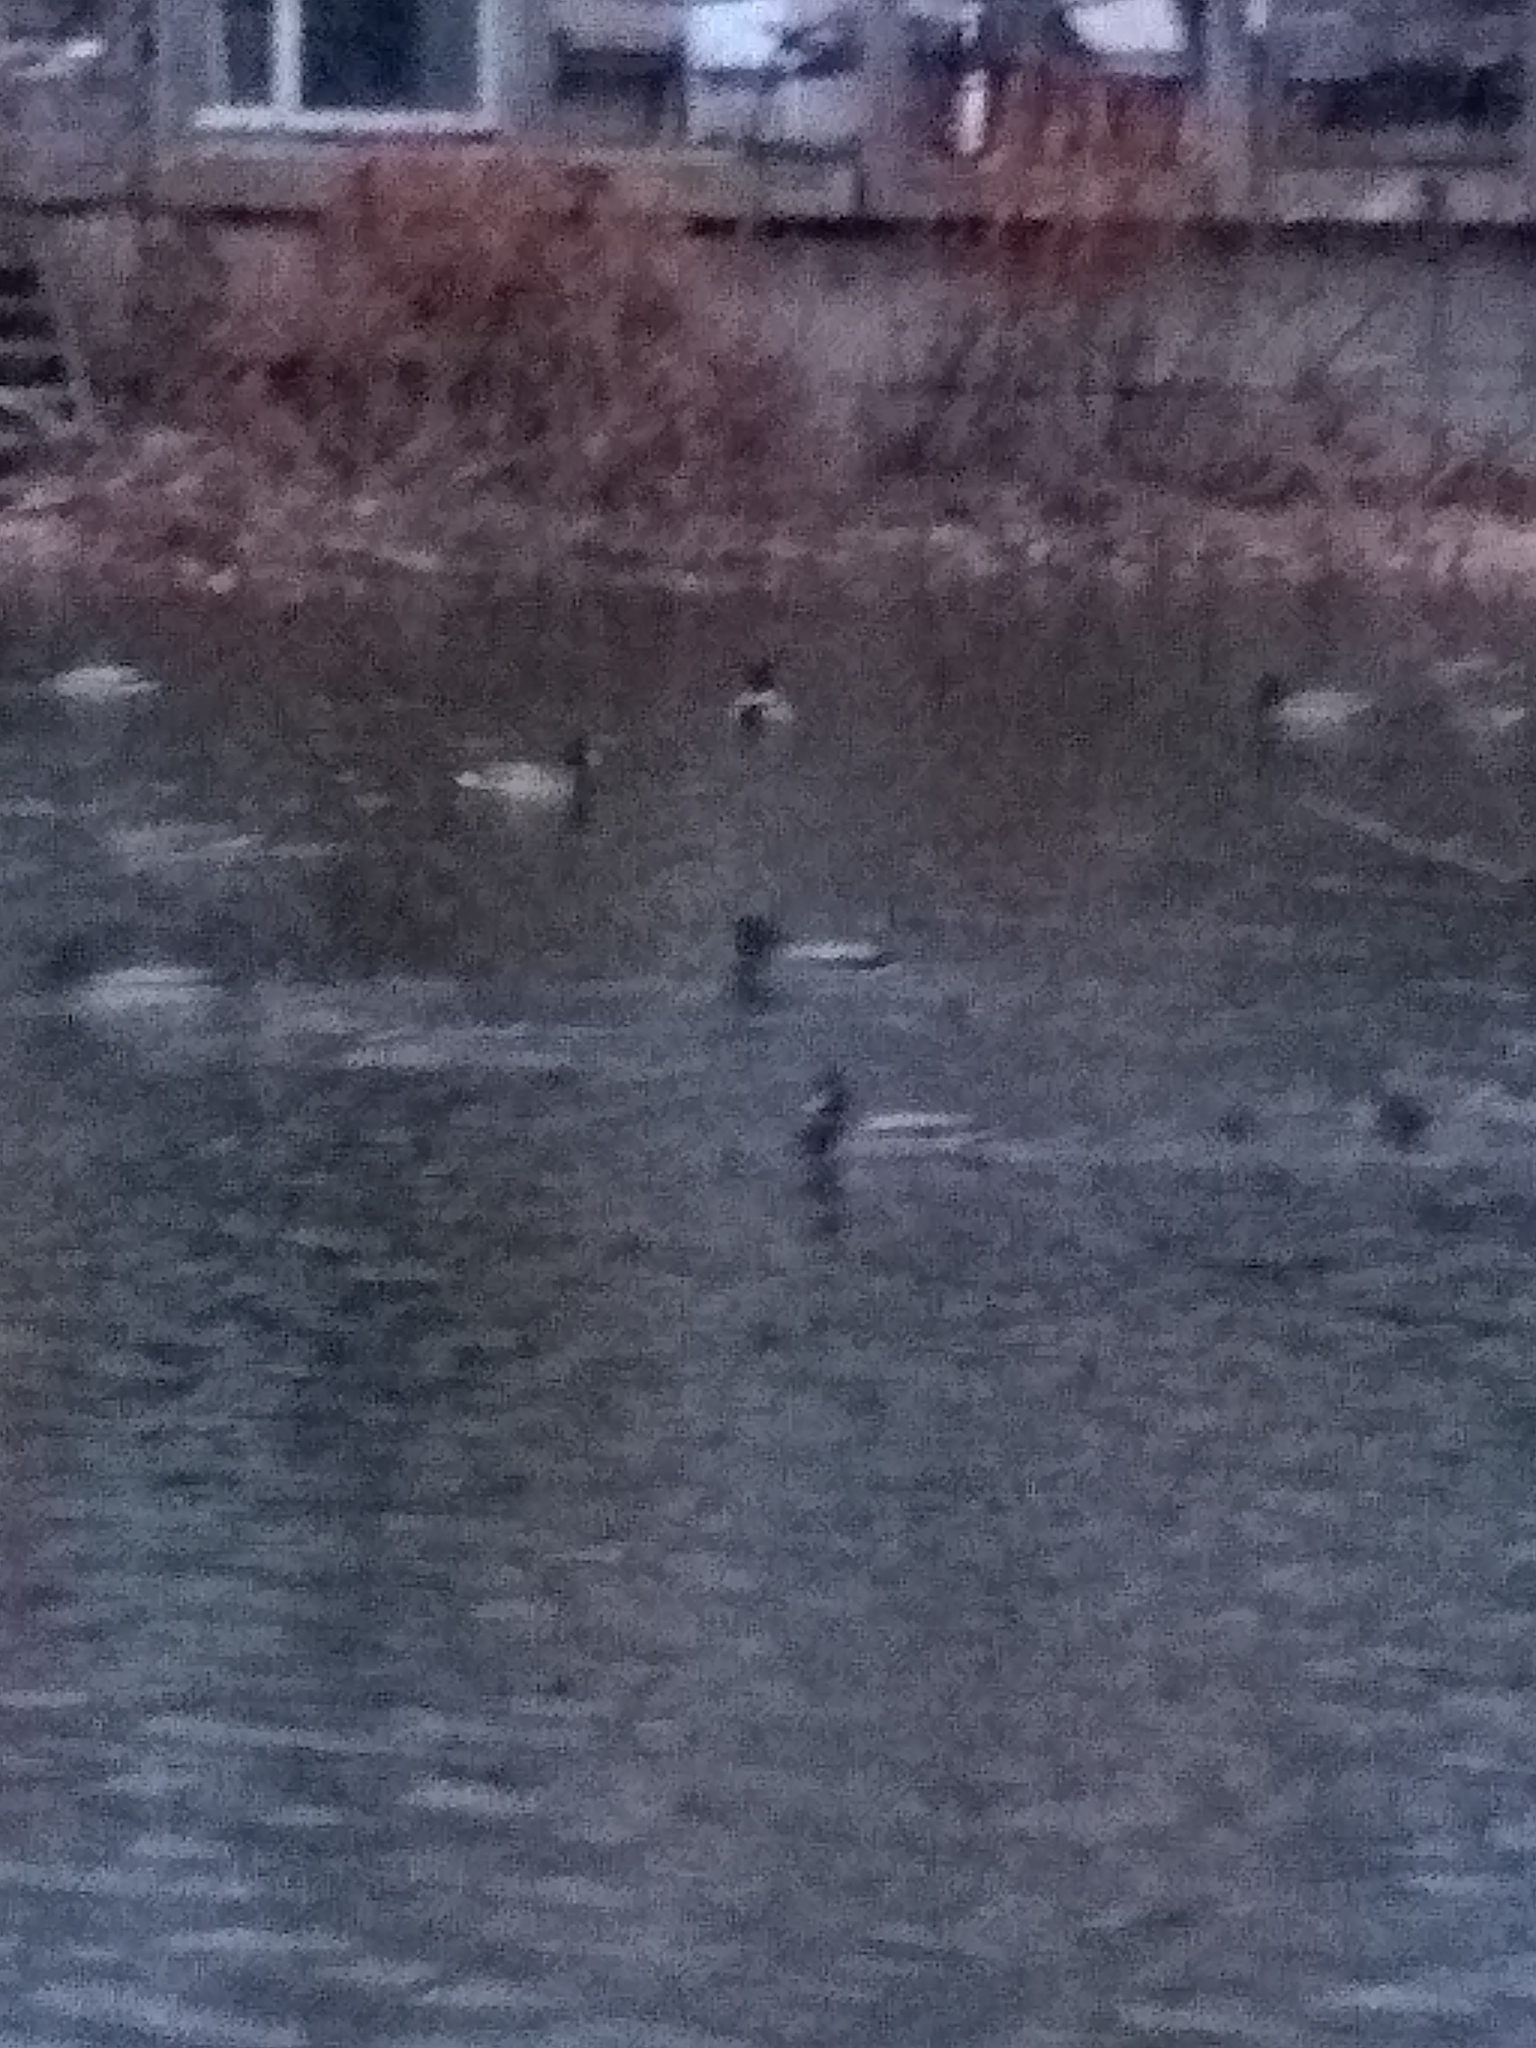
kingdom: Animalia
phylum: Chordata
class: Aves
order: Anseriformes
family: Anatidae
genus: Anas
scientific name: Anas platyrhynchos
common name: Mallard
